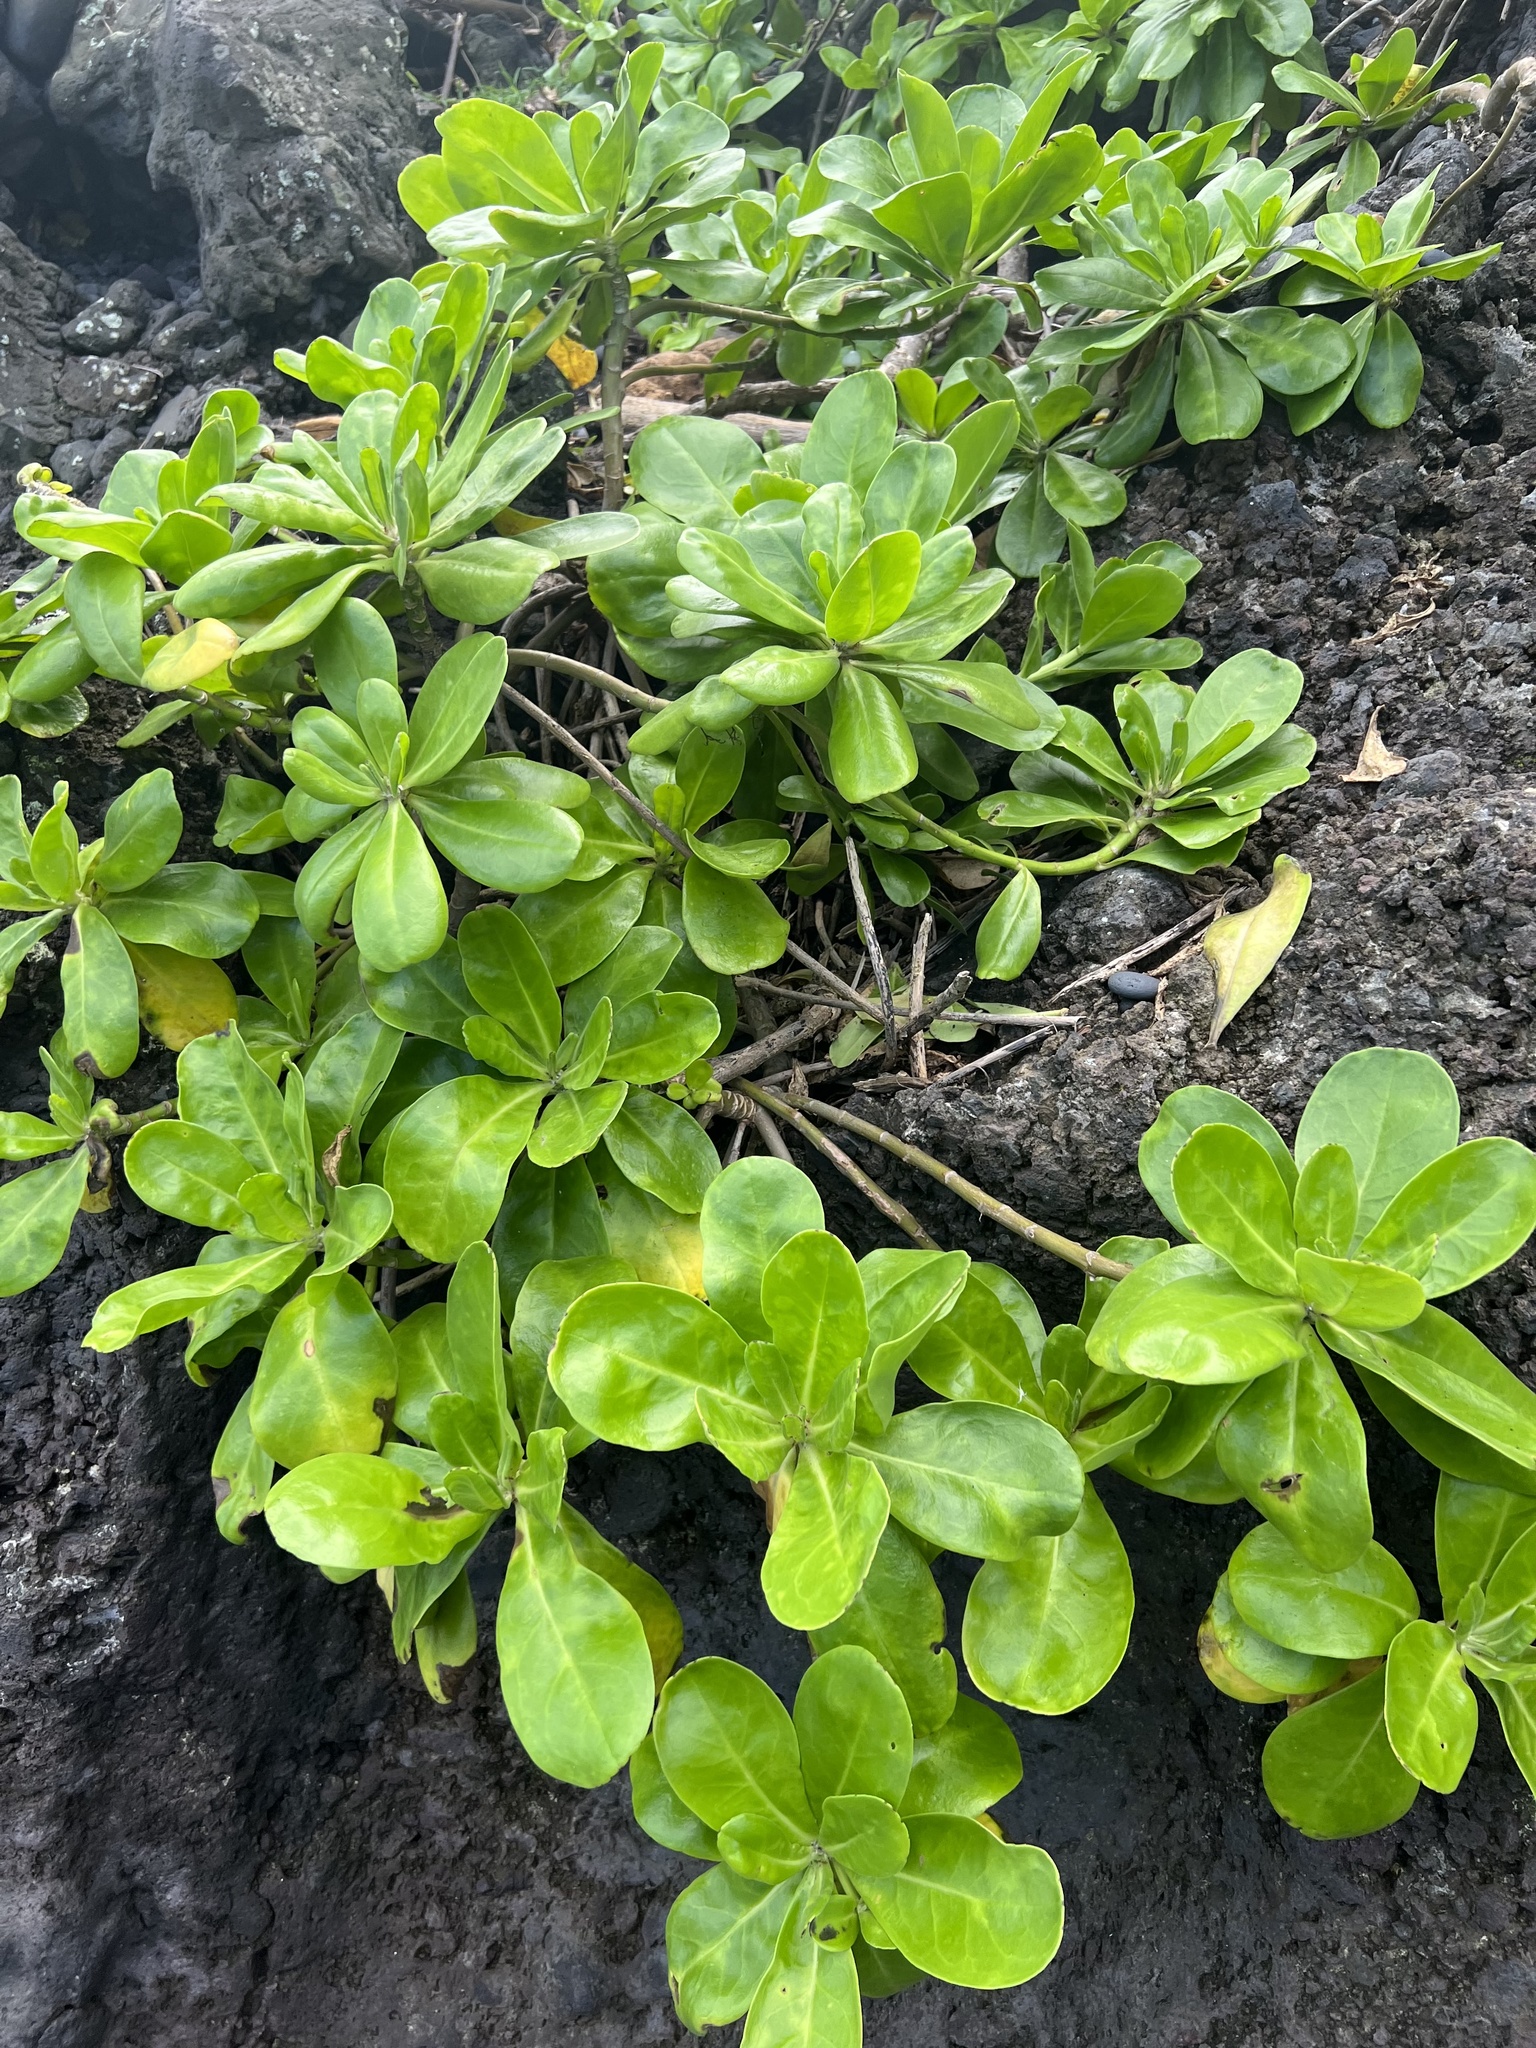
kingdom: Plantae
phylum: Tracheophyta
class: Magnoliopsida
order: Asterales
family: Goodeniaceae
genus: Scaevola
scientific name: Scaevola taccada
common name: Sea lettucetree
